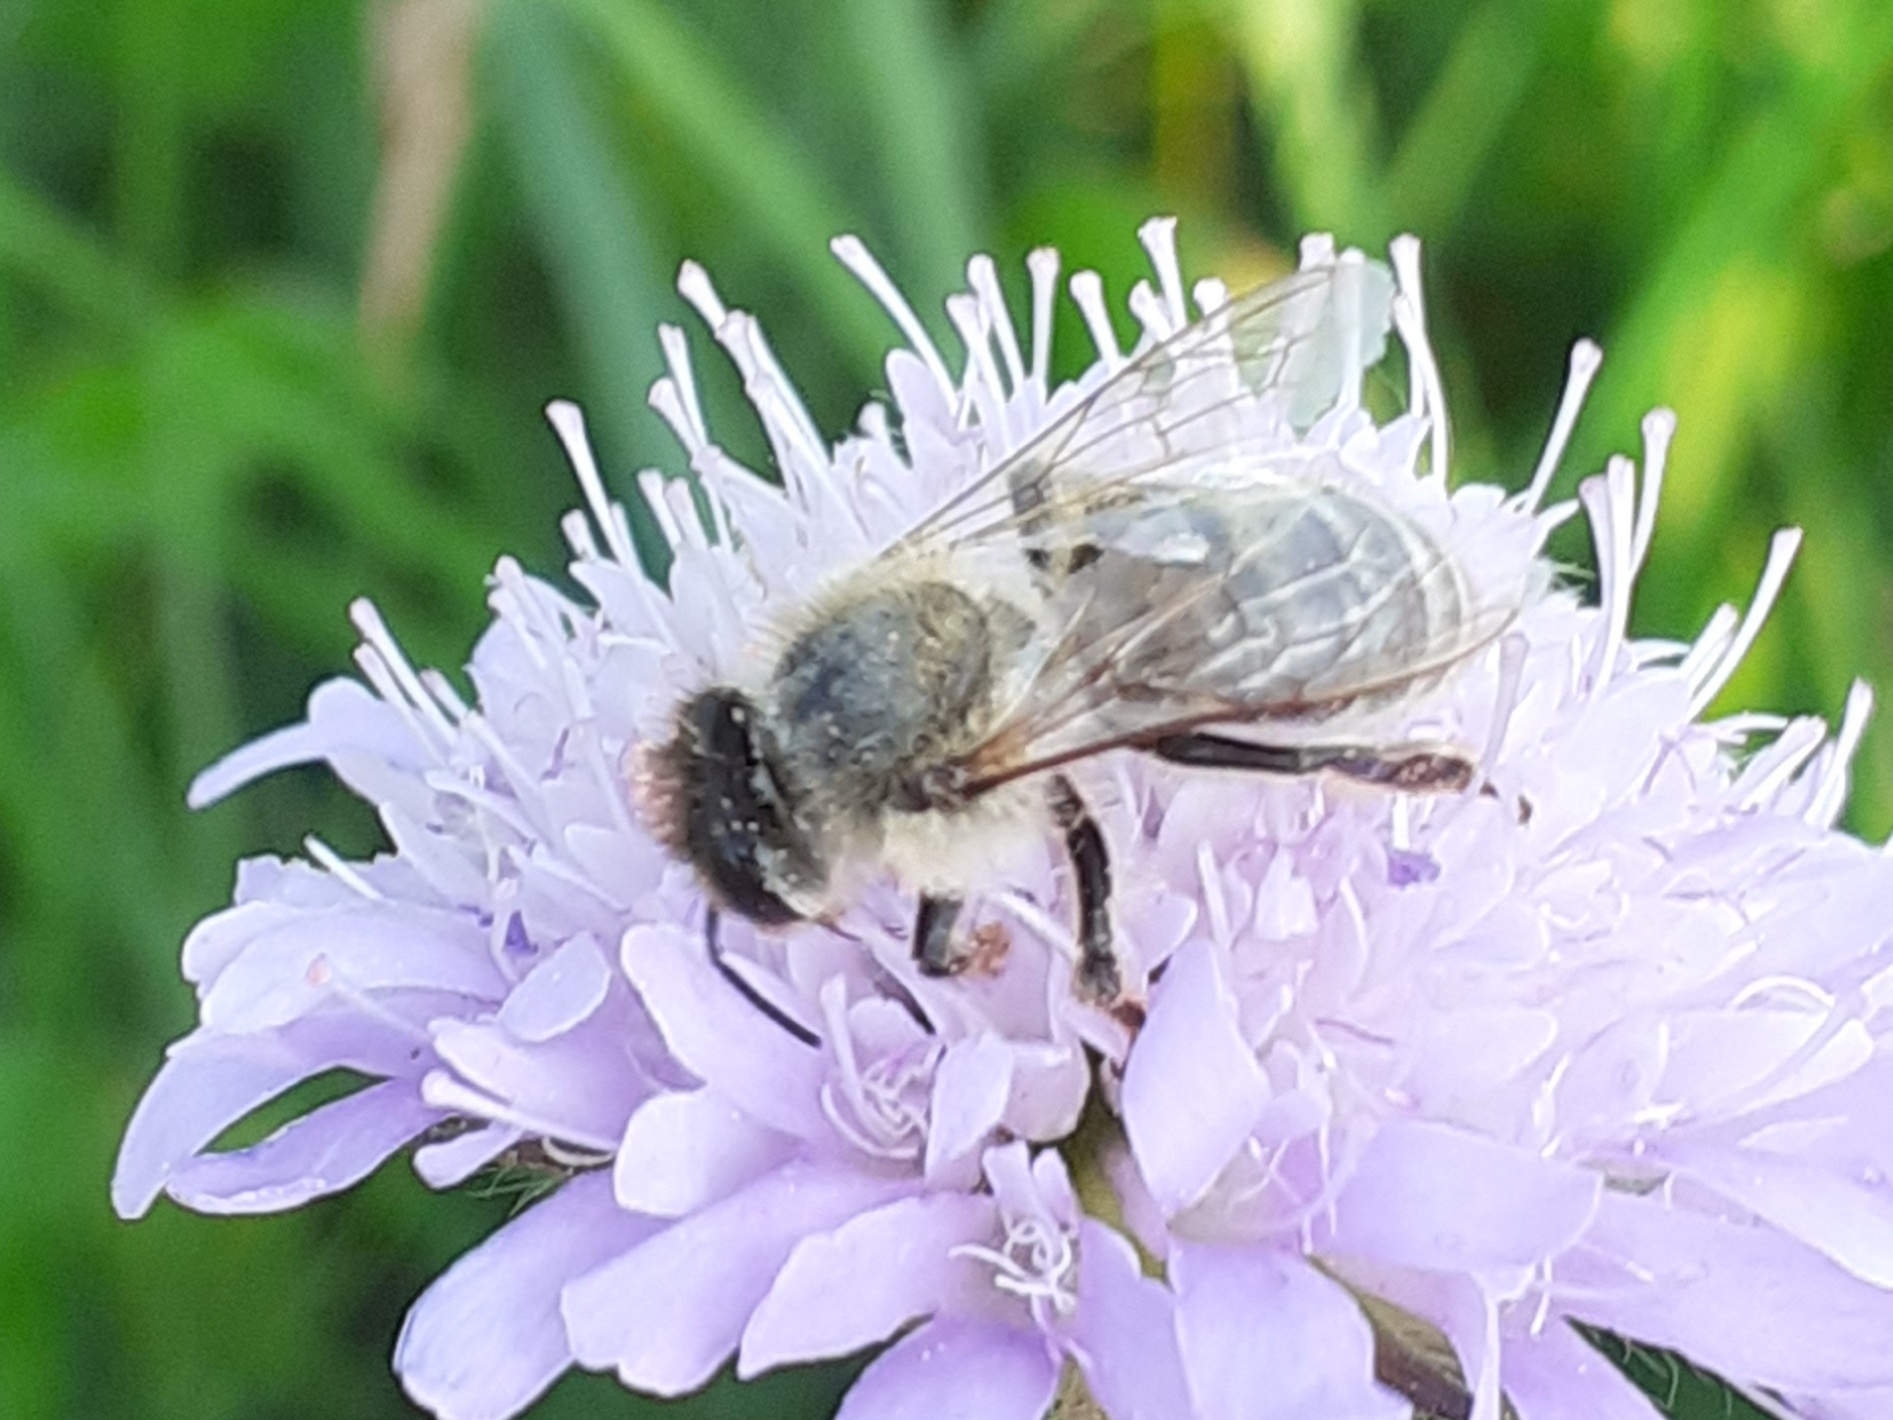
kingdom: Animalia
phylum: Arthropoda
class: Insecta
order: Hymenoptera
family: Apidae
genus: Apis
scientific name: Apis mellifera
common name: Honey bee
